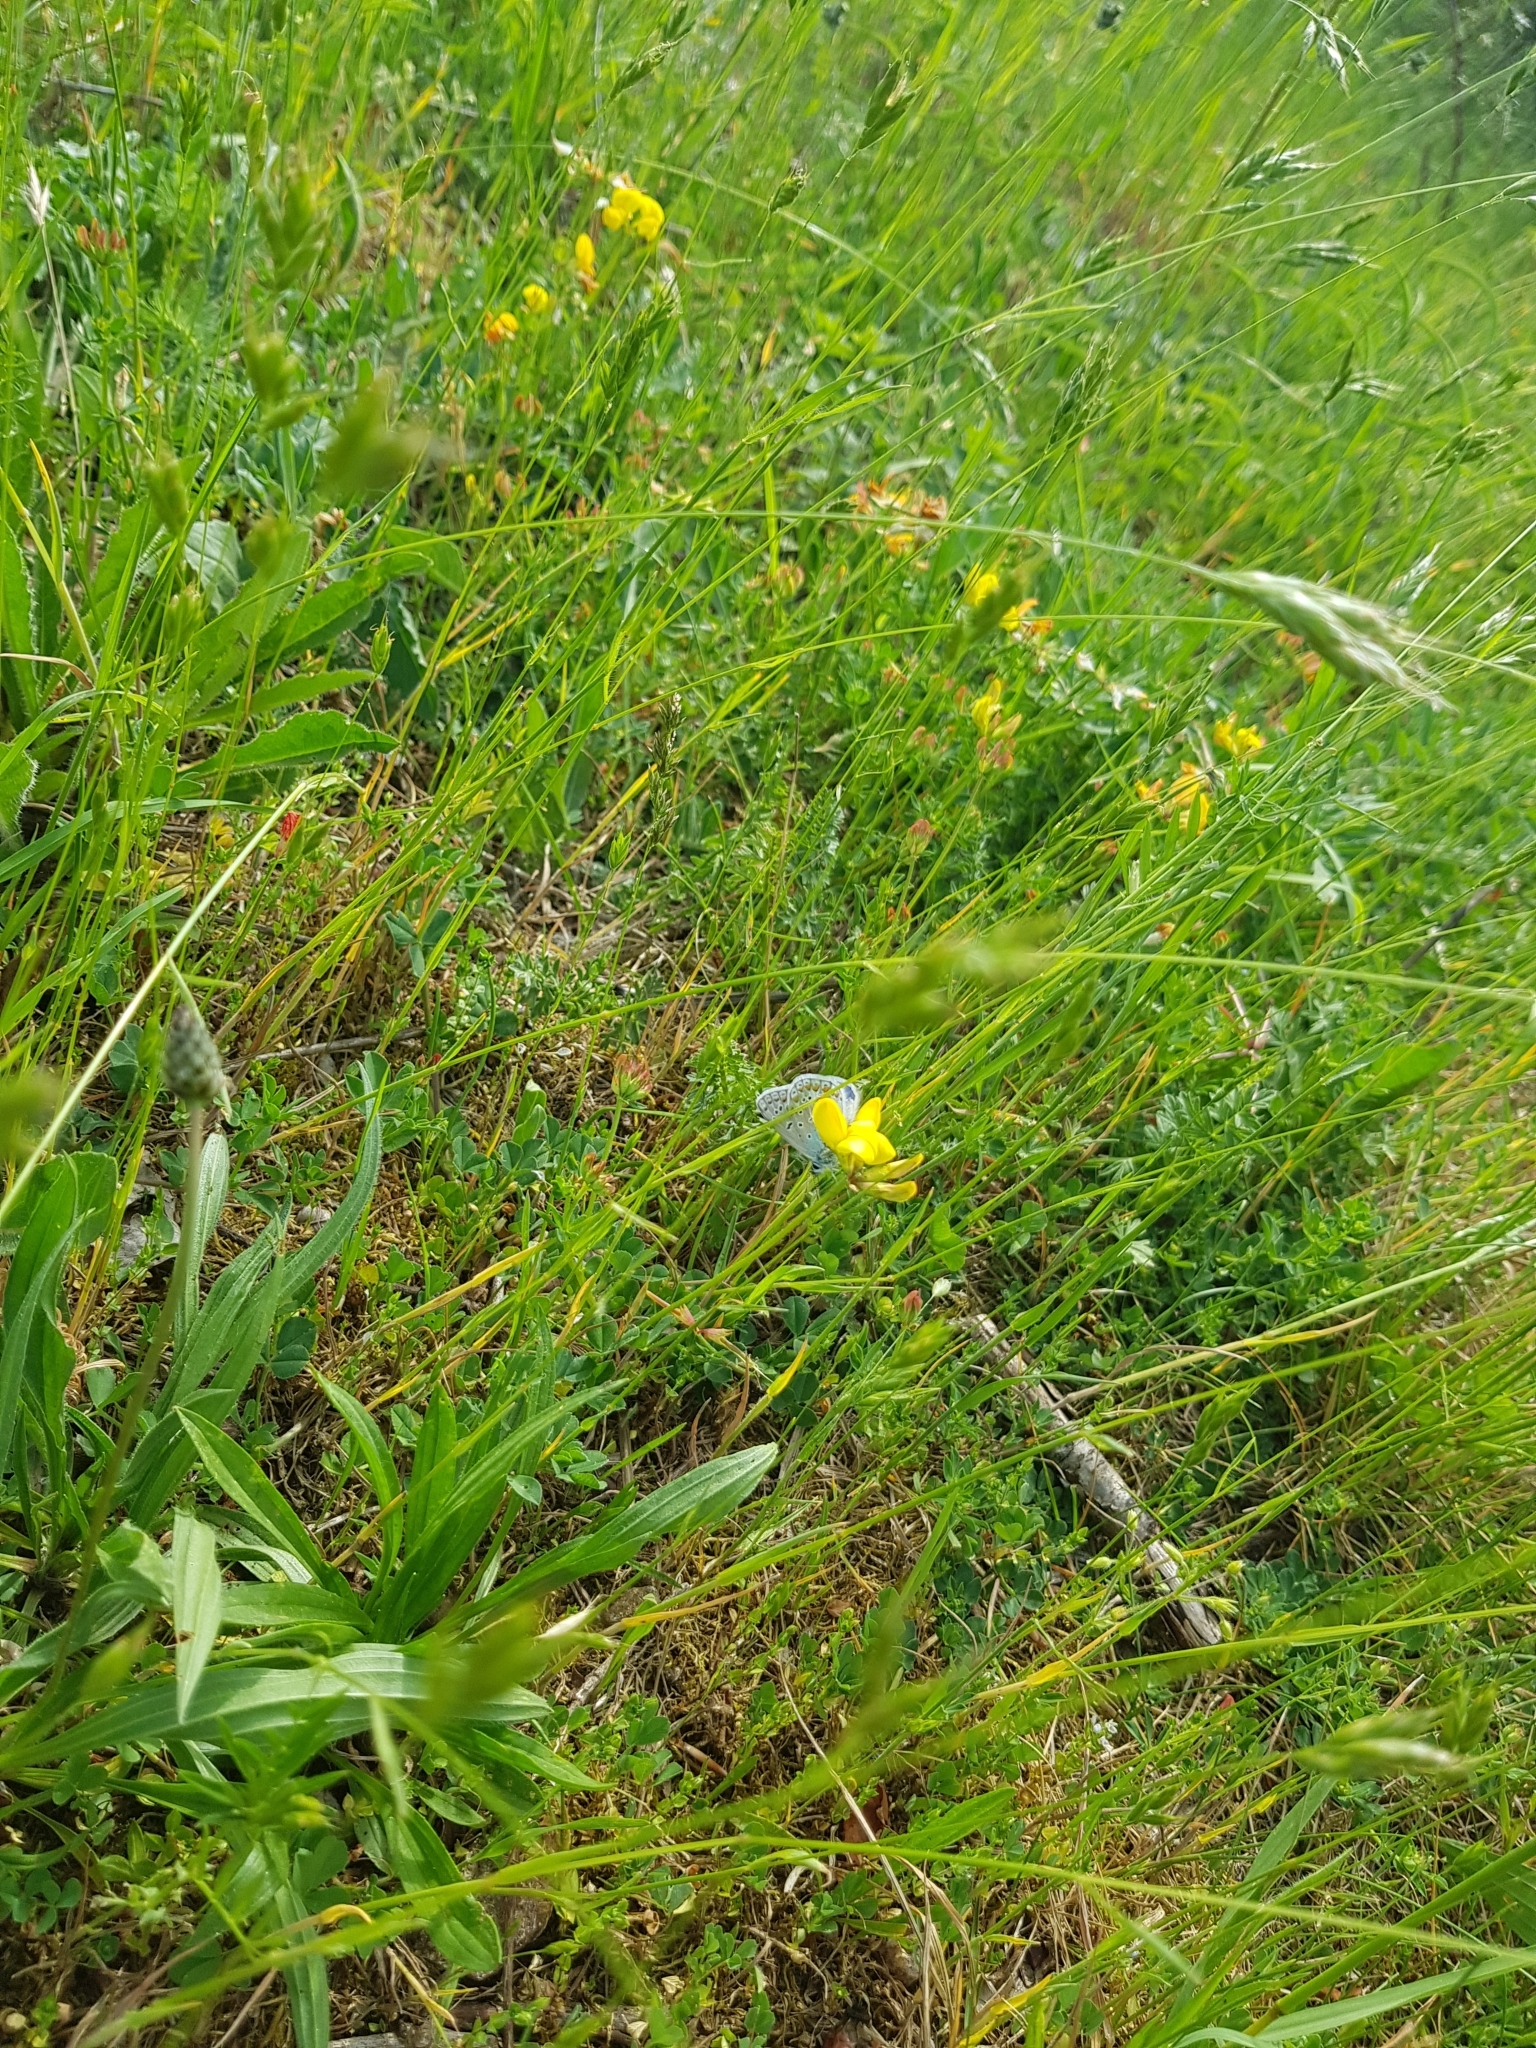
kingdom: Animalia
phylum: Arthropoda
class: Insecta
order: Lepidoptera
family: Lycaenidae
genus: Polyommatus
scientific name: Polyommatus icarus
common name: Common blue
